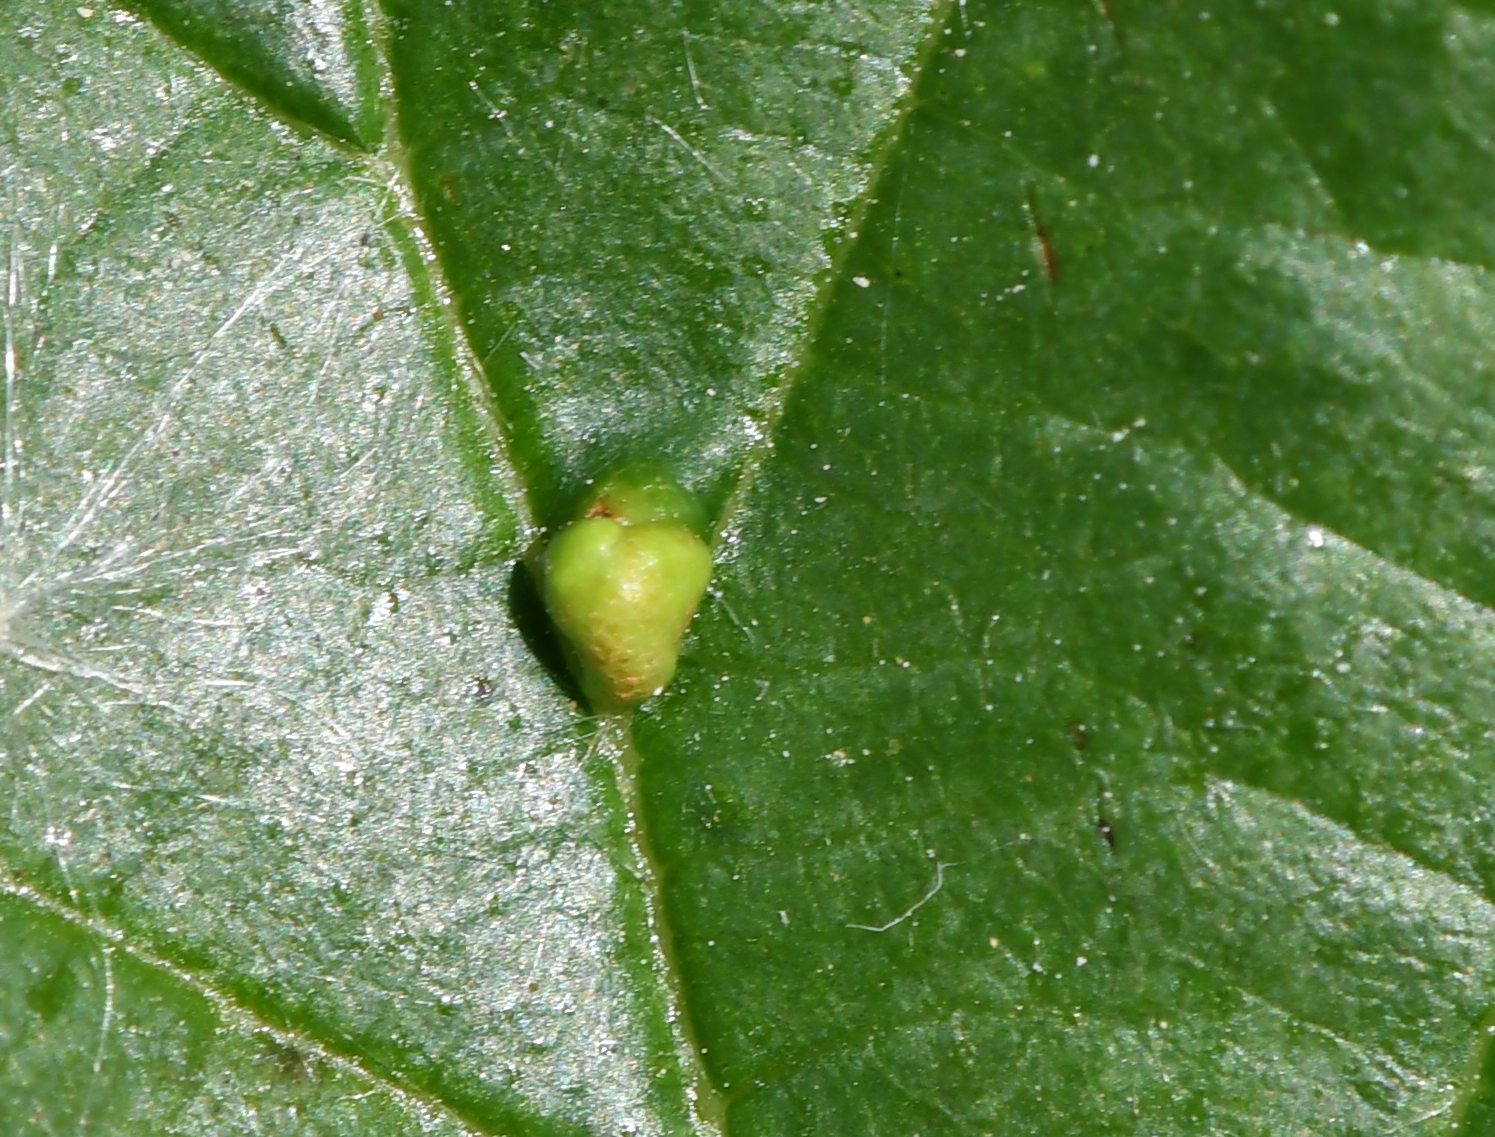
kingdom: Animalia
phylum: Arthropoda
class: Arachnida
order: Trombidiformes
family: Eriophyidae
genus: Eriophyes
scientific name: Eriophyes inangulis
